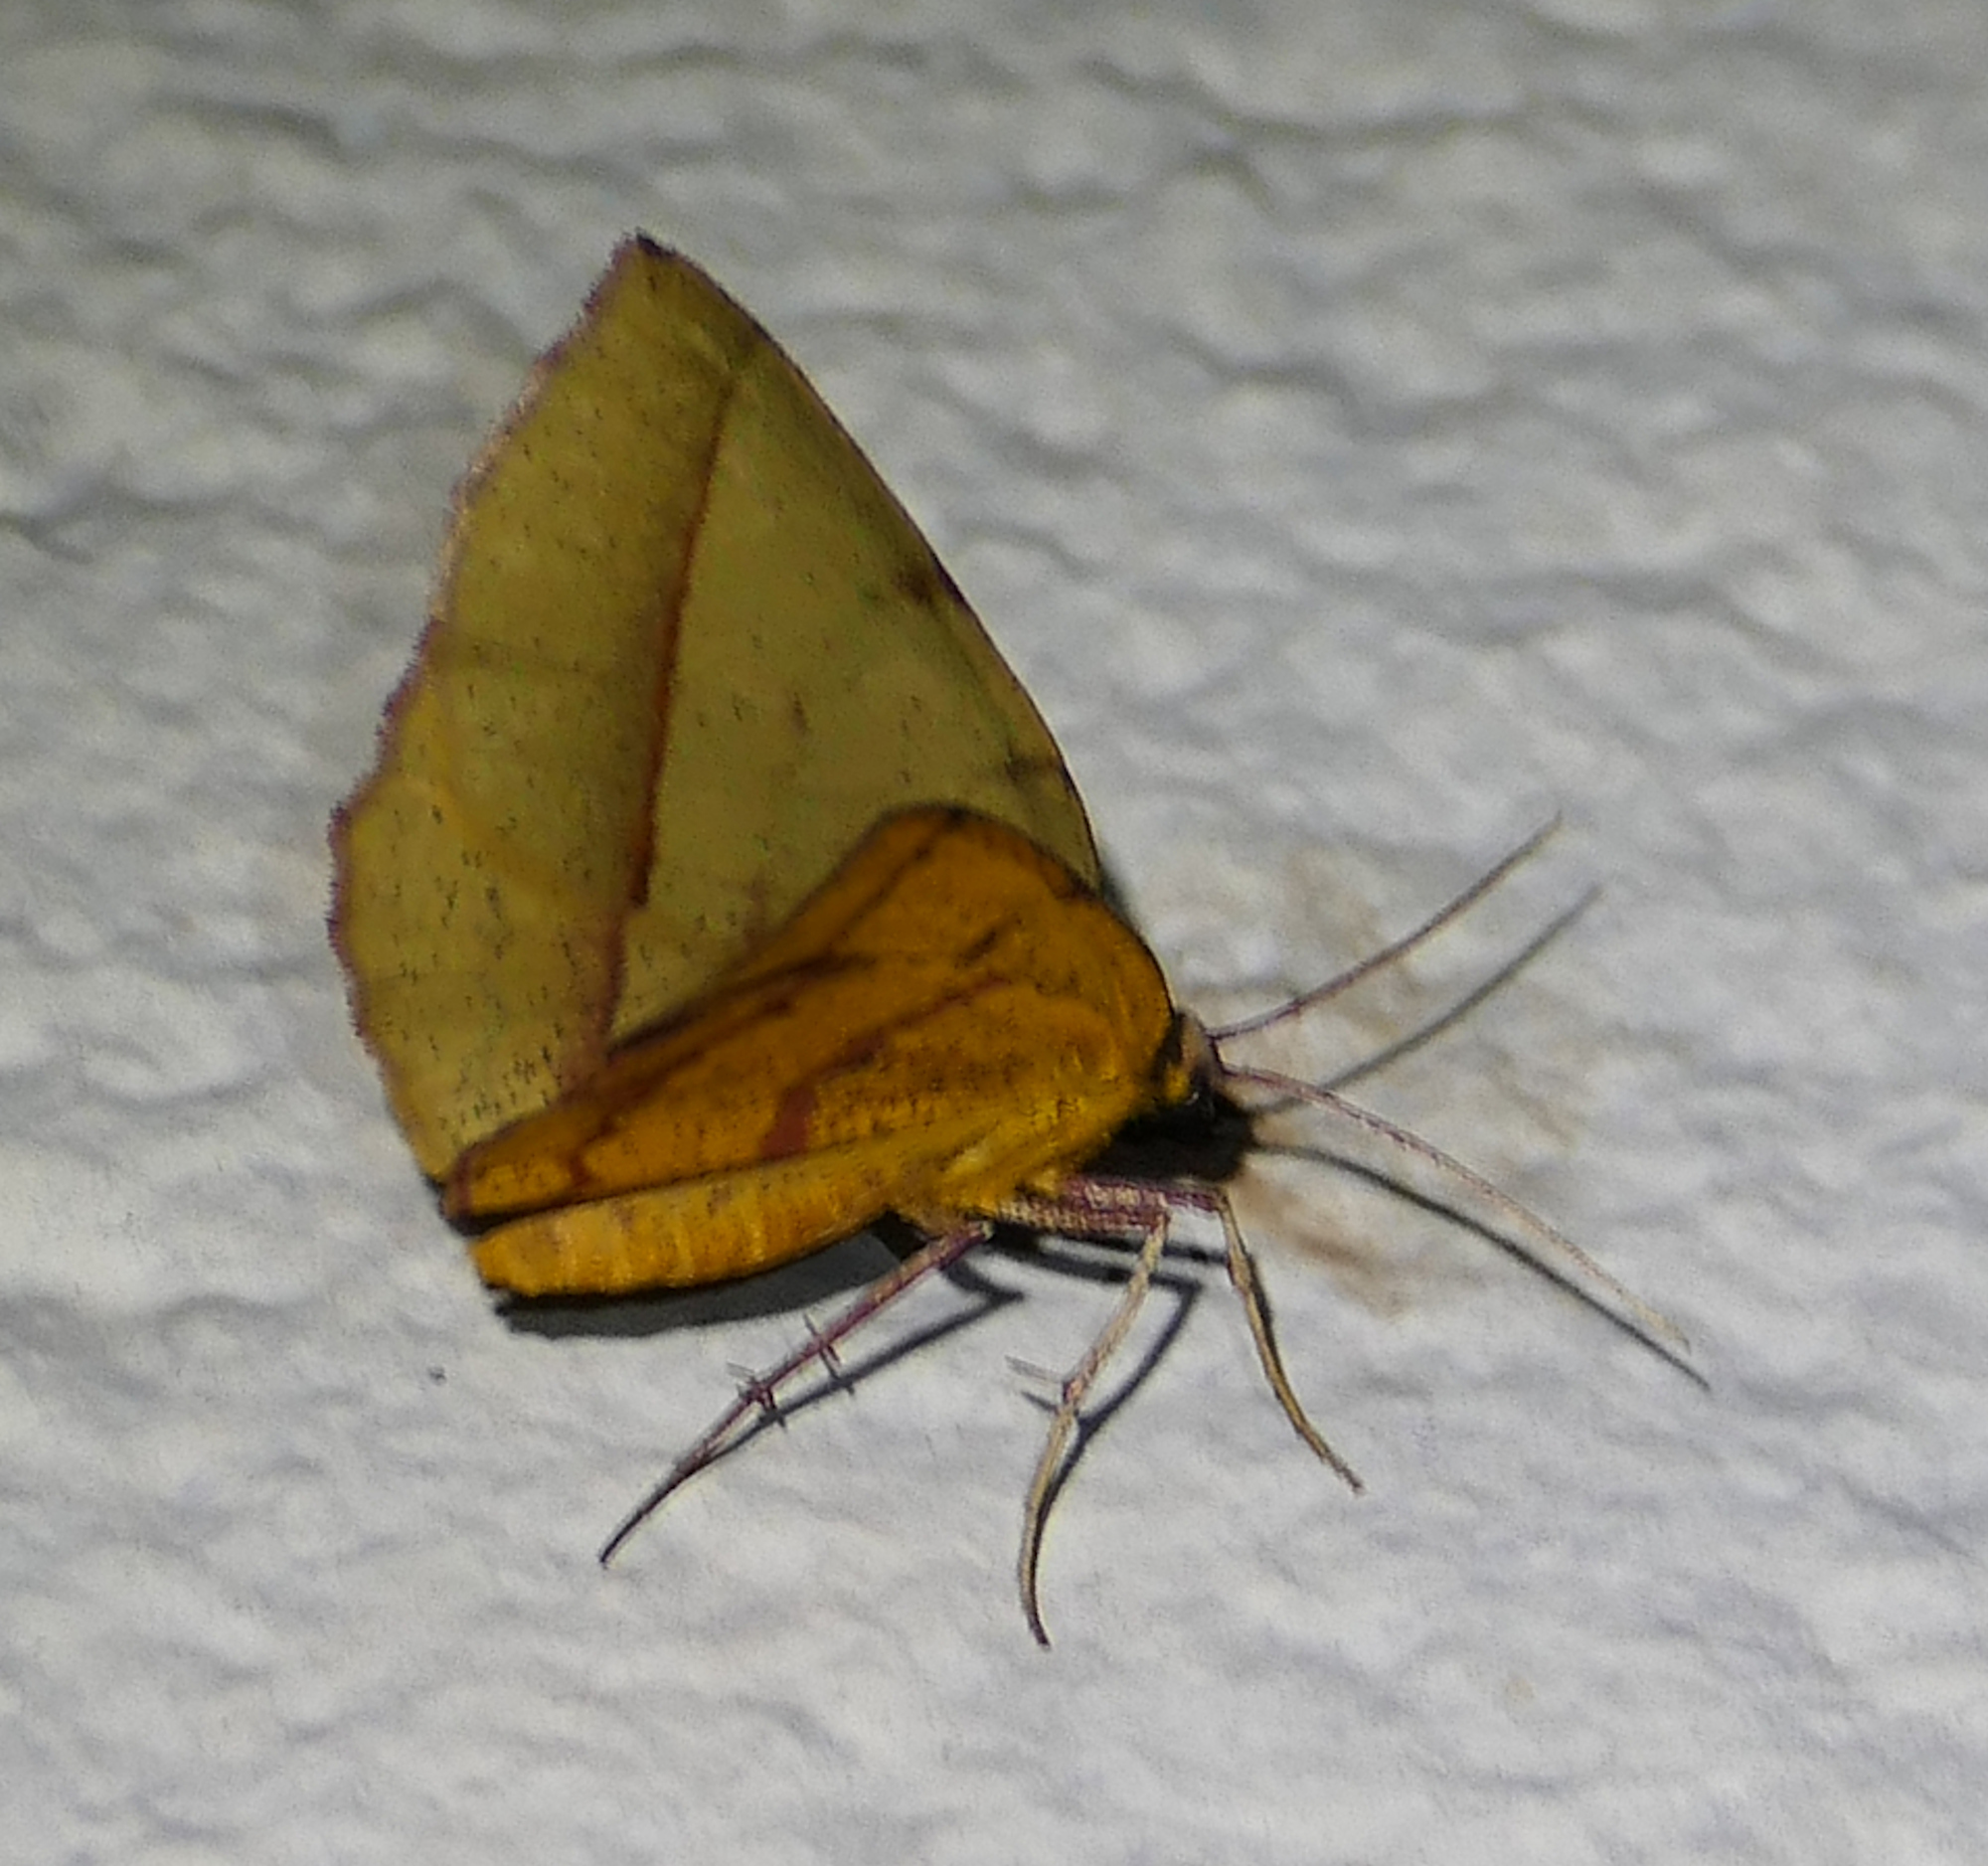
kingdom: Animalia
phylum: Arthropoda
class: Insecta
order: Lepidoptera
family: Geometridae
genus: Erastria
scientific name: Erastria cruentaria
